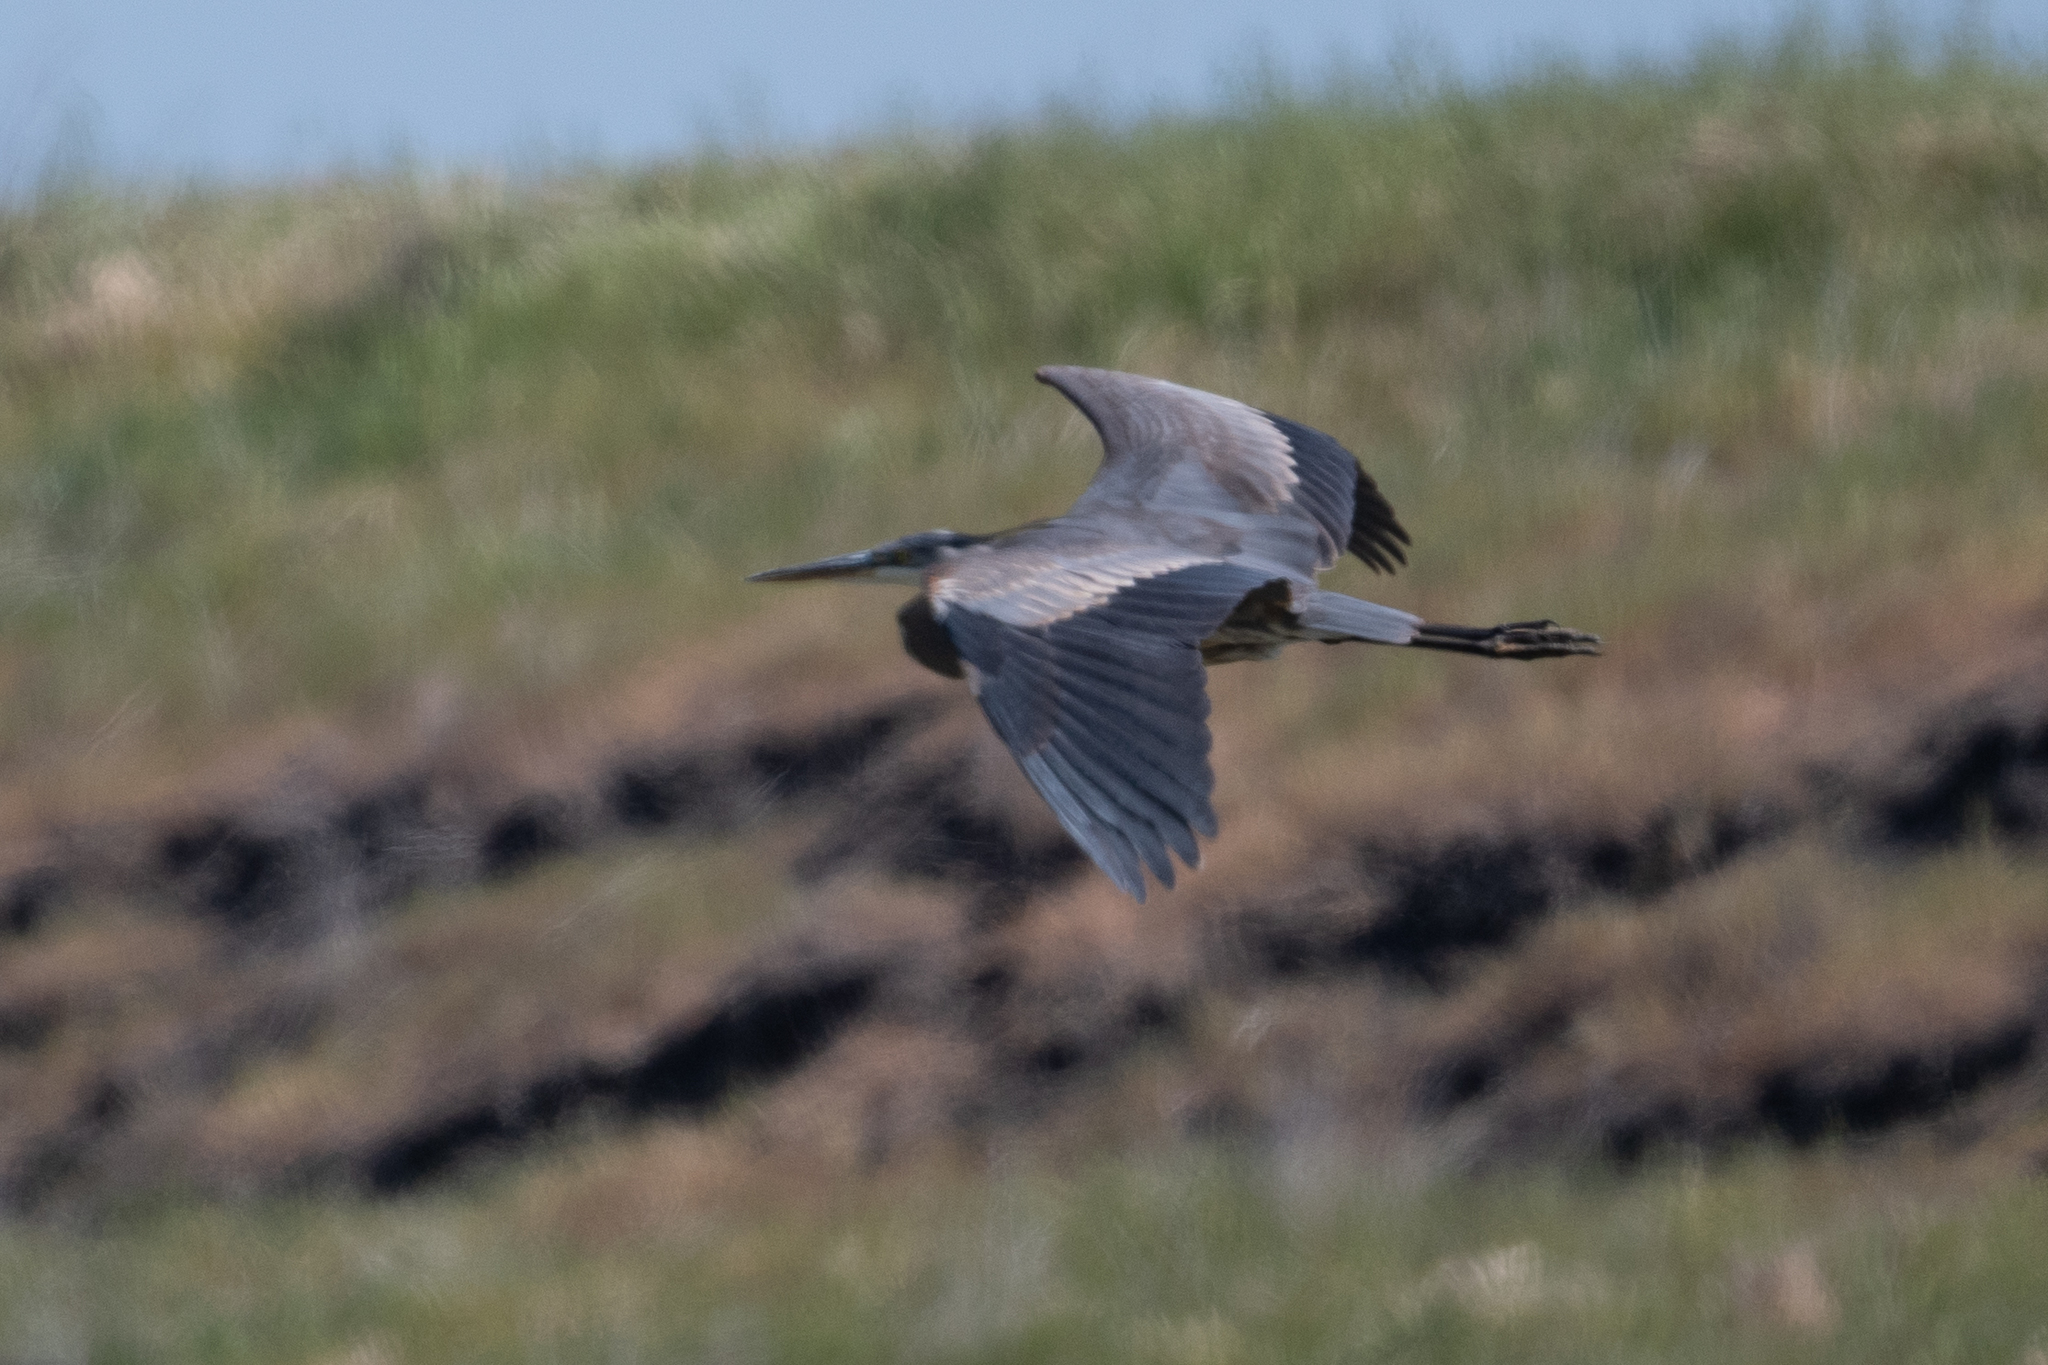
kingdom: Animalia
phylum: Chordata
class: Aves
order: Pelecaniformes
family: Ardeidae
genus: Ardea
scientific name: Ardea herodias
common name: Great blue heron
